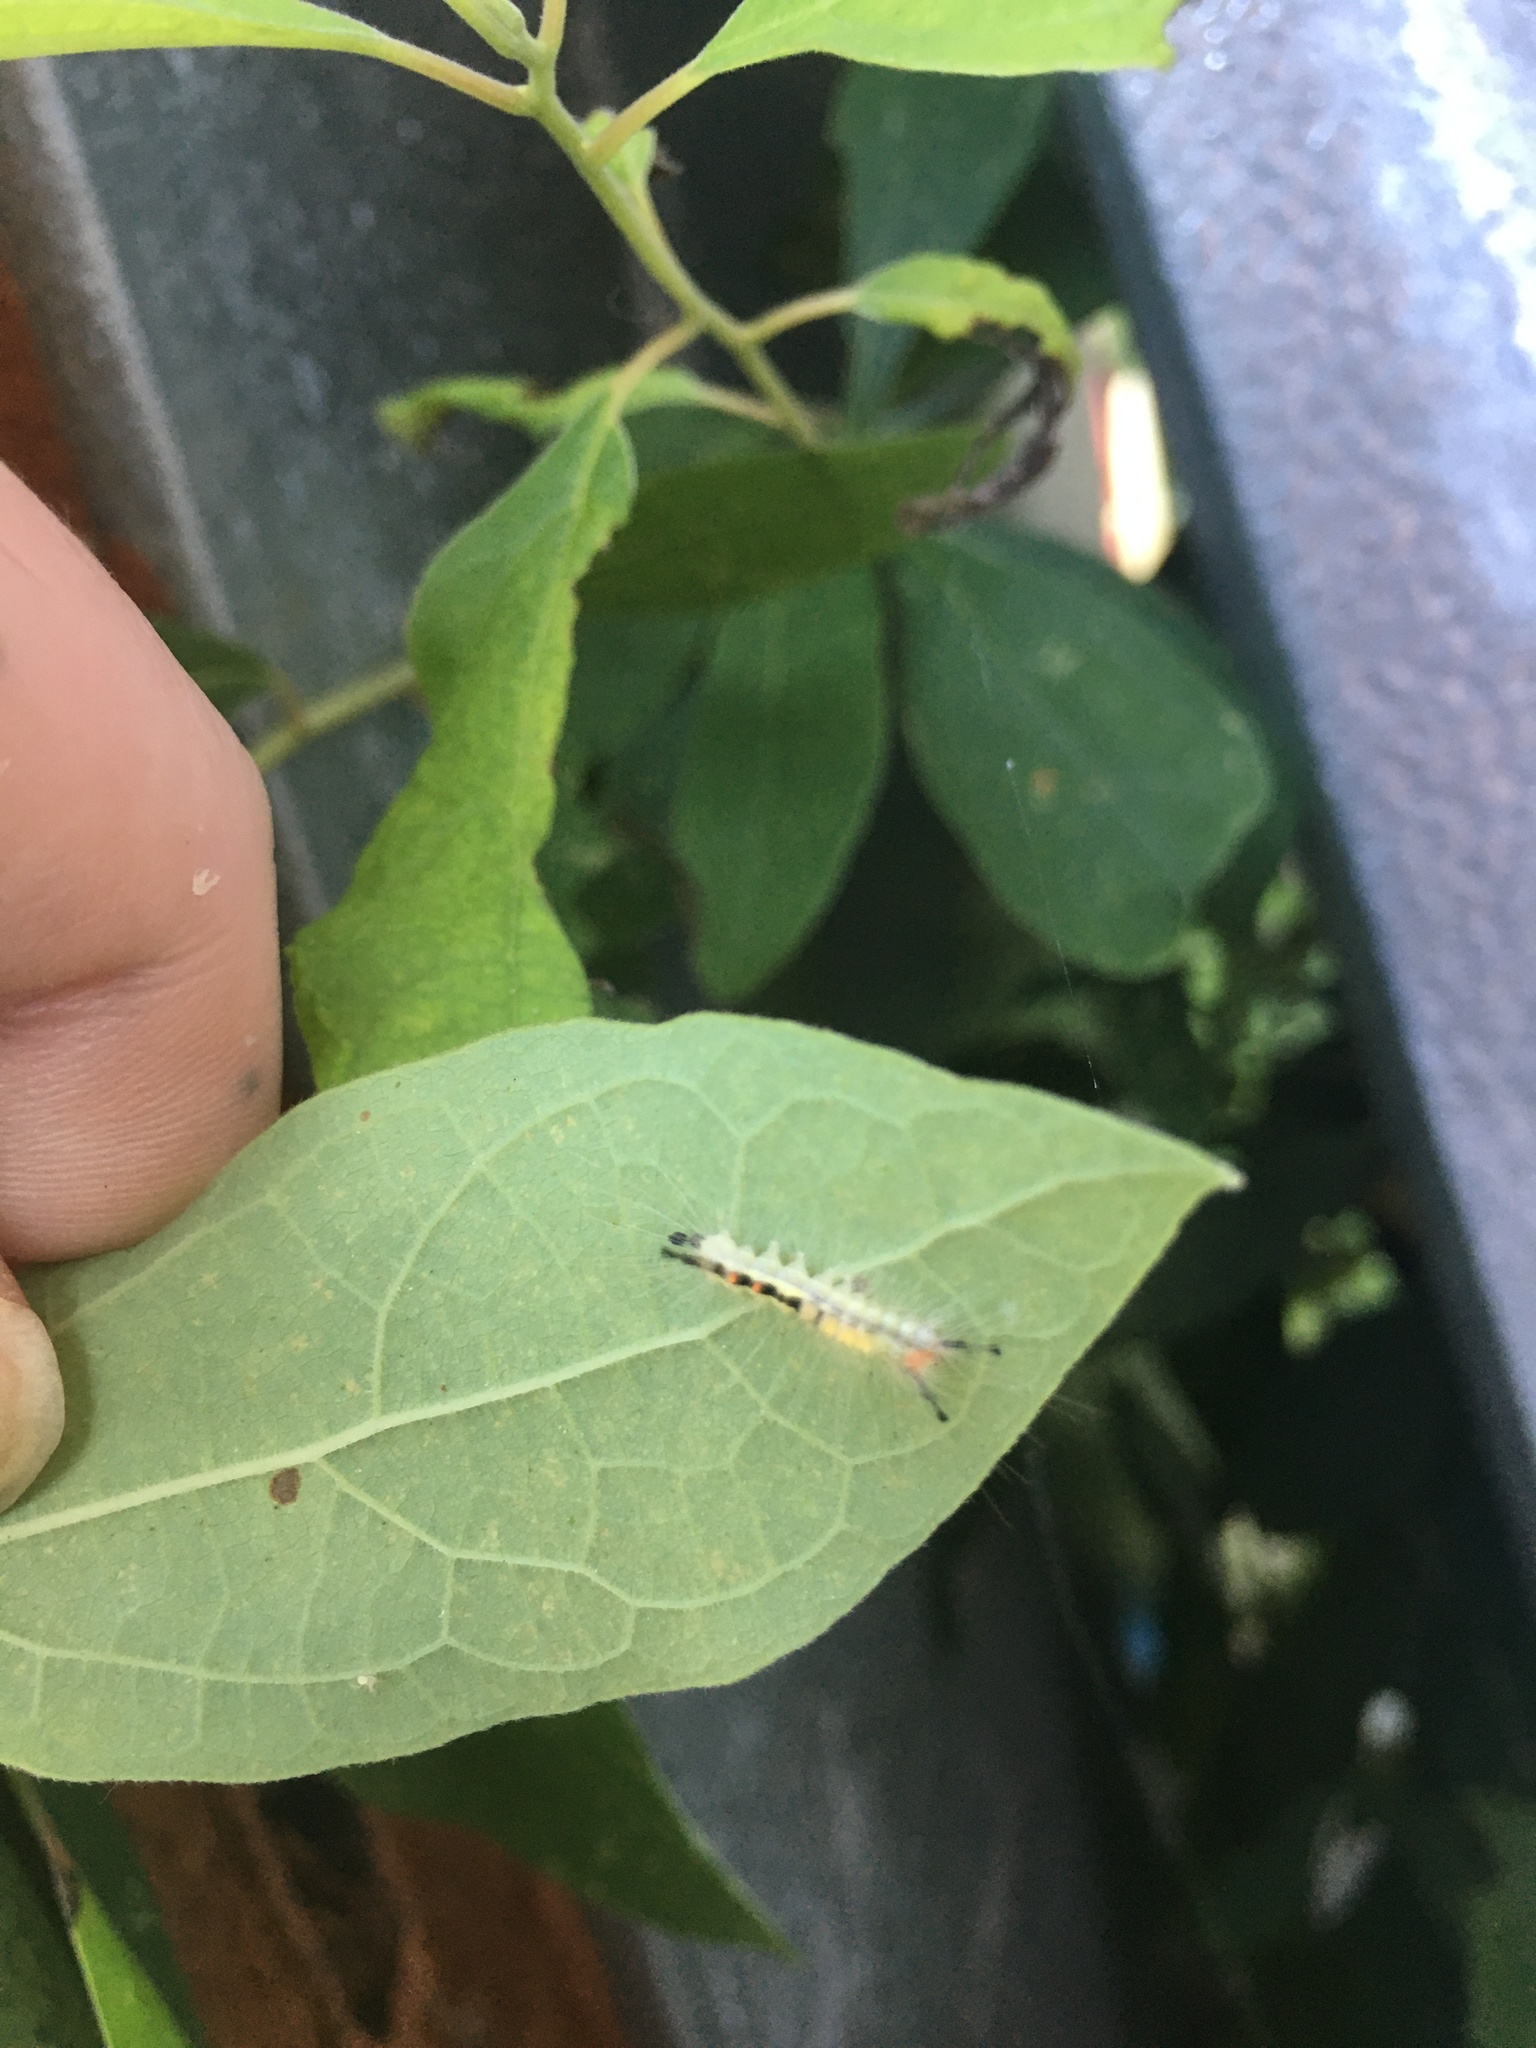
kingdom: Animalia
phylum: Arthropoda
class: Insecta
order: Lepidoptera
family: Erebidae
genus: Orgyia
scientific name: Orgyia leucostigma
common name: White-marked tussock moth
